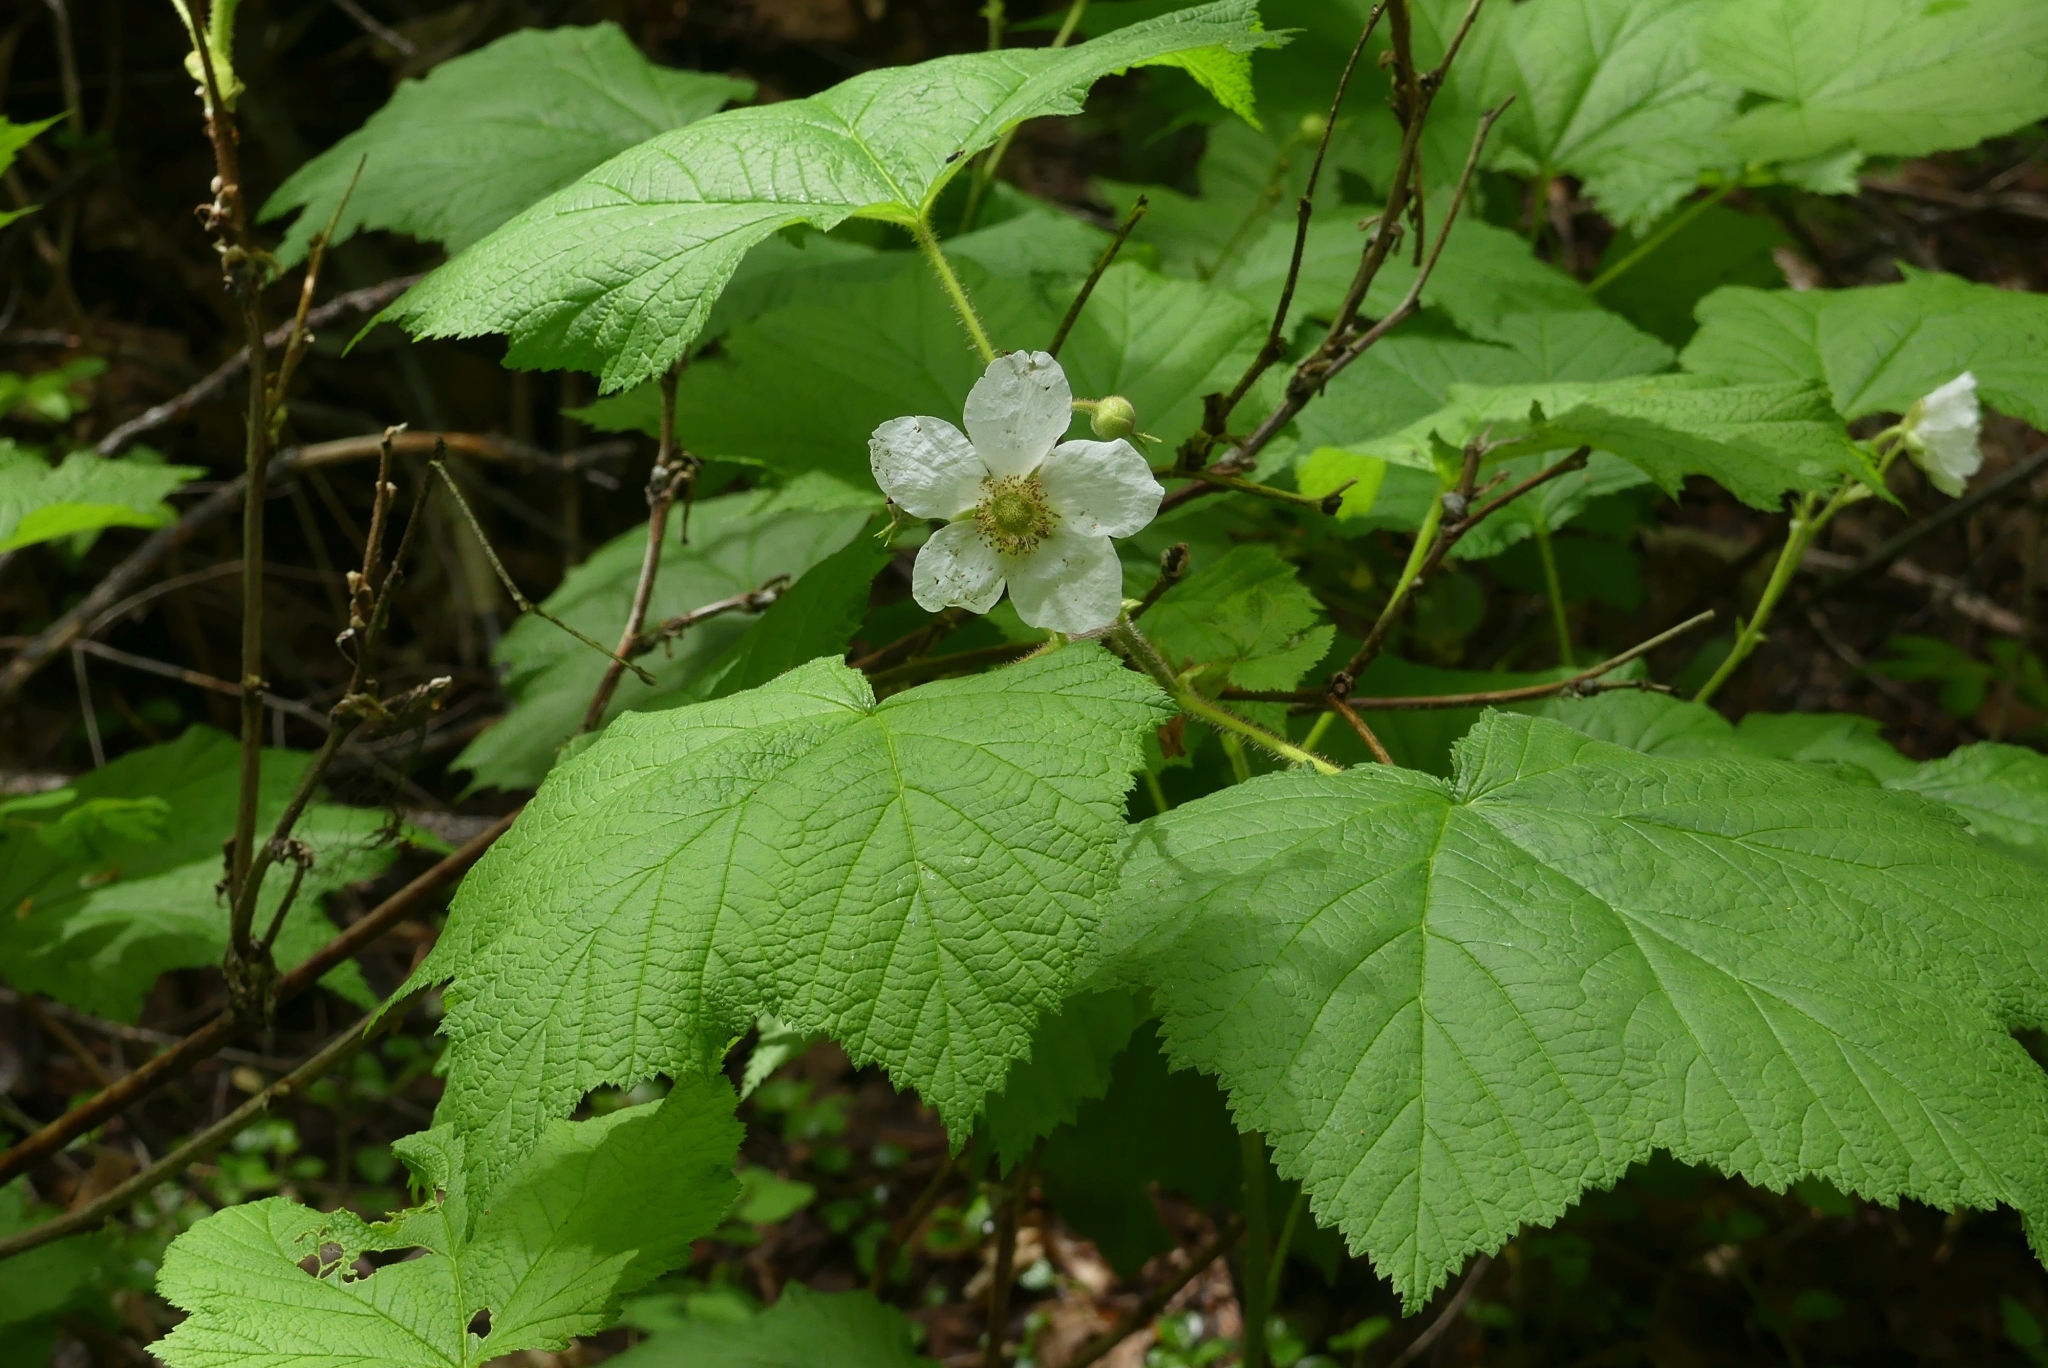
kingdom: Plantae
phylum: Tracheophyta
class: Magnoliopsida
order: Rosales
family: Rosaceae
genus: Rubus
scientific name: Rubus parviflorus
